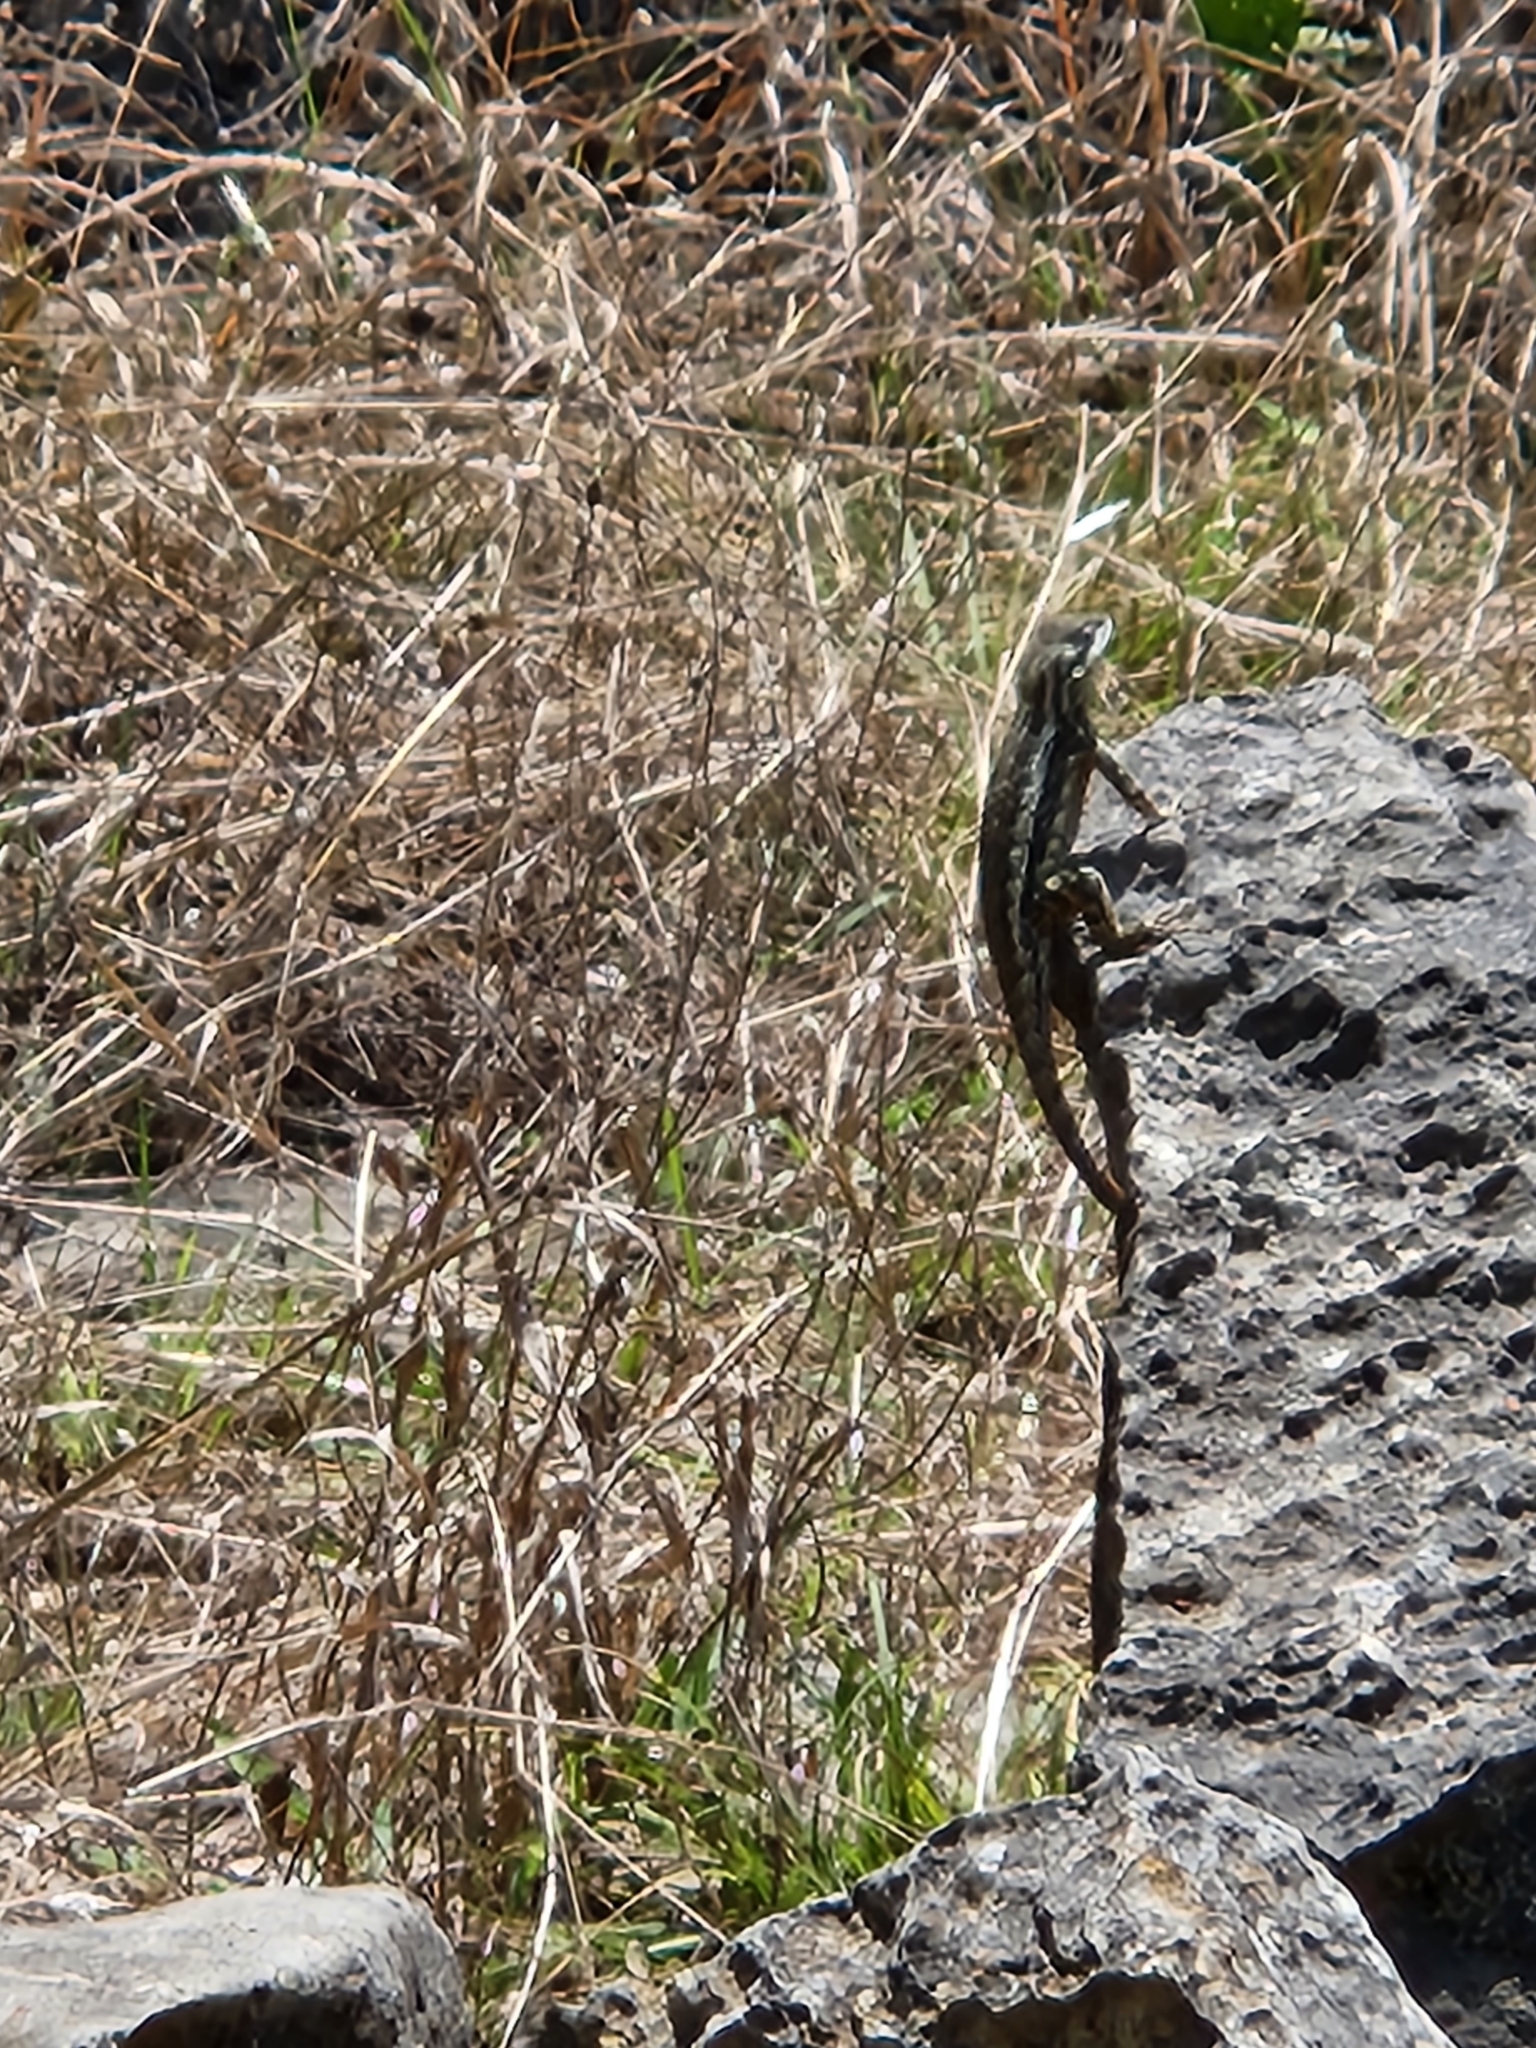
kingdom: Animalia
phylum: Chordata
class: Squamata
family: Phrynosomatidae
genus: Sceloporus
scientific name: Sceloporus olivaceus
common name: Texas spiny lizard
